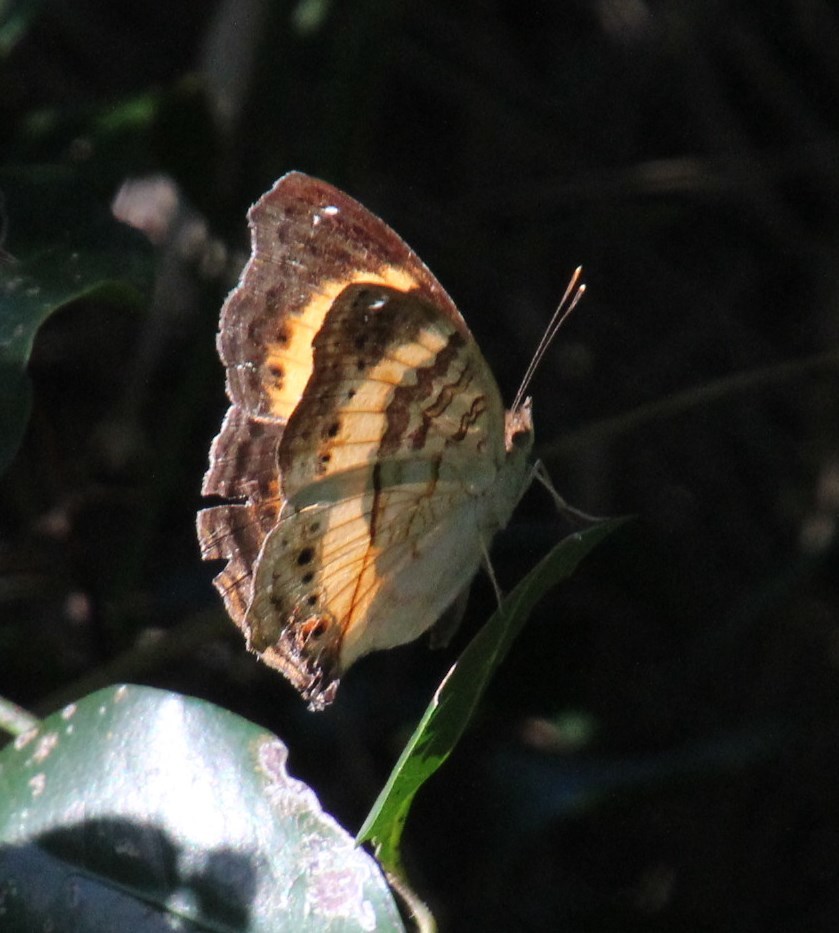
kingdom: Animalia
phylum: Arthropoda
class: Insecta
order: Lepidoptera
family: Nymphalidae
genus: Junonia
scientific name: Junonia terea
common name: Soldier pansy
